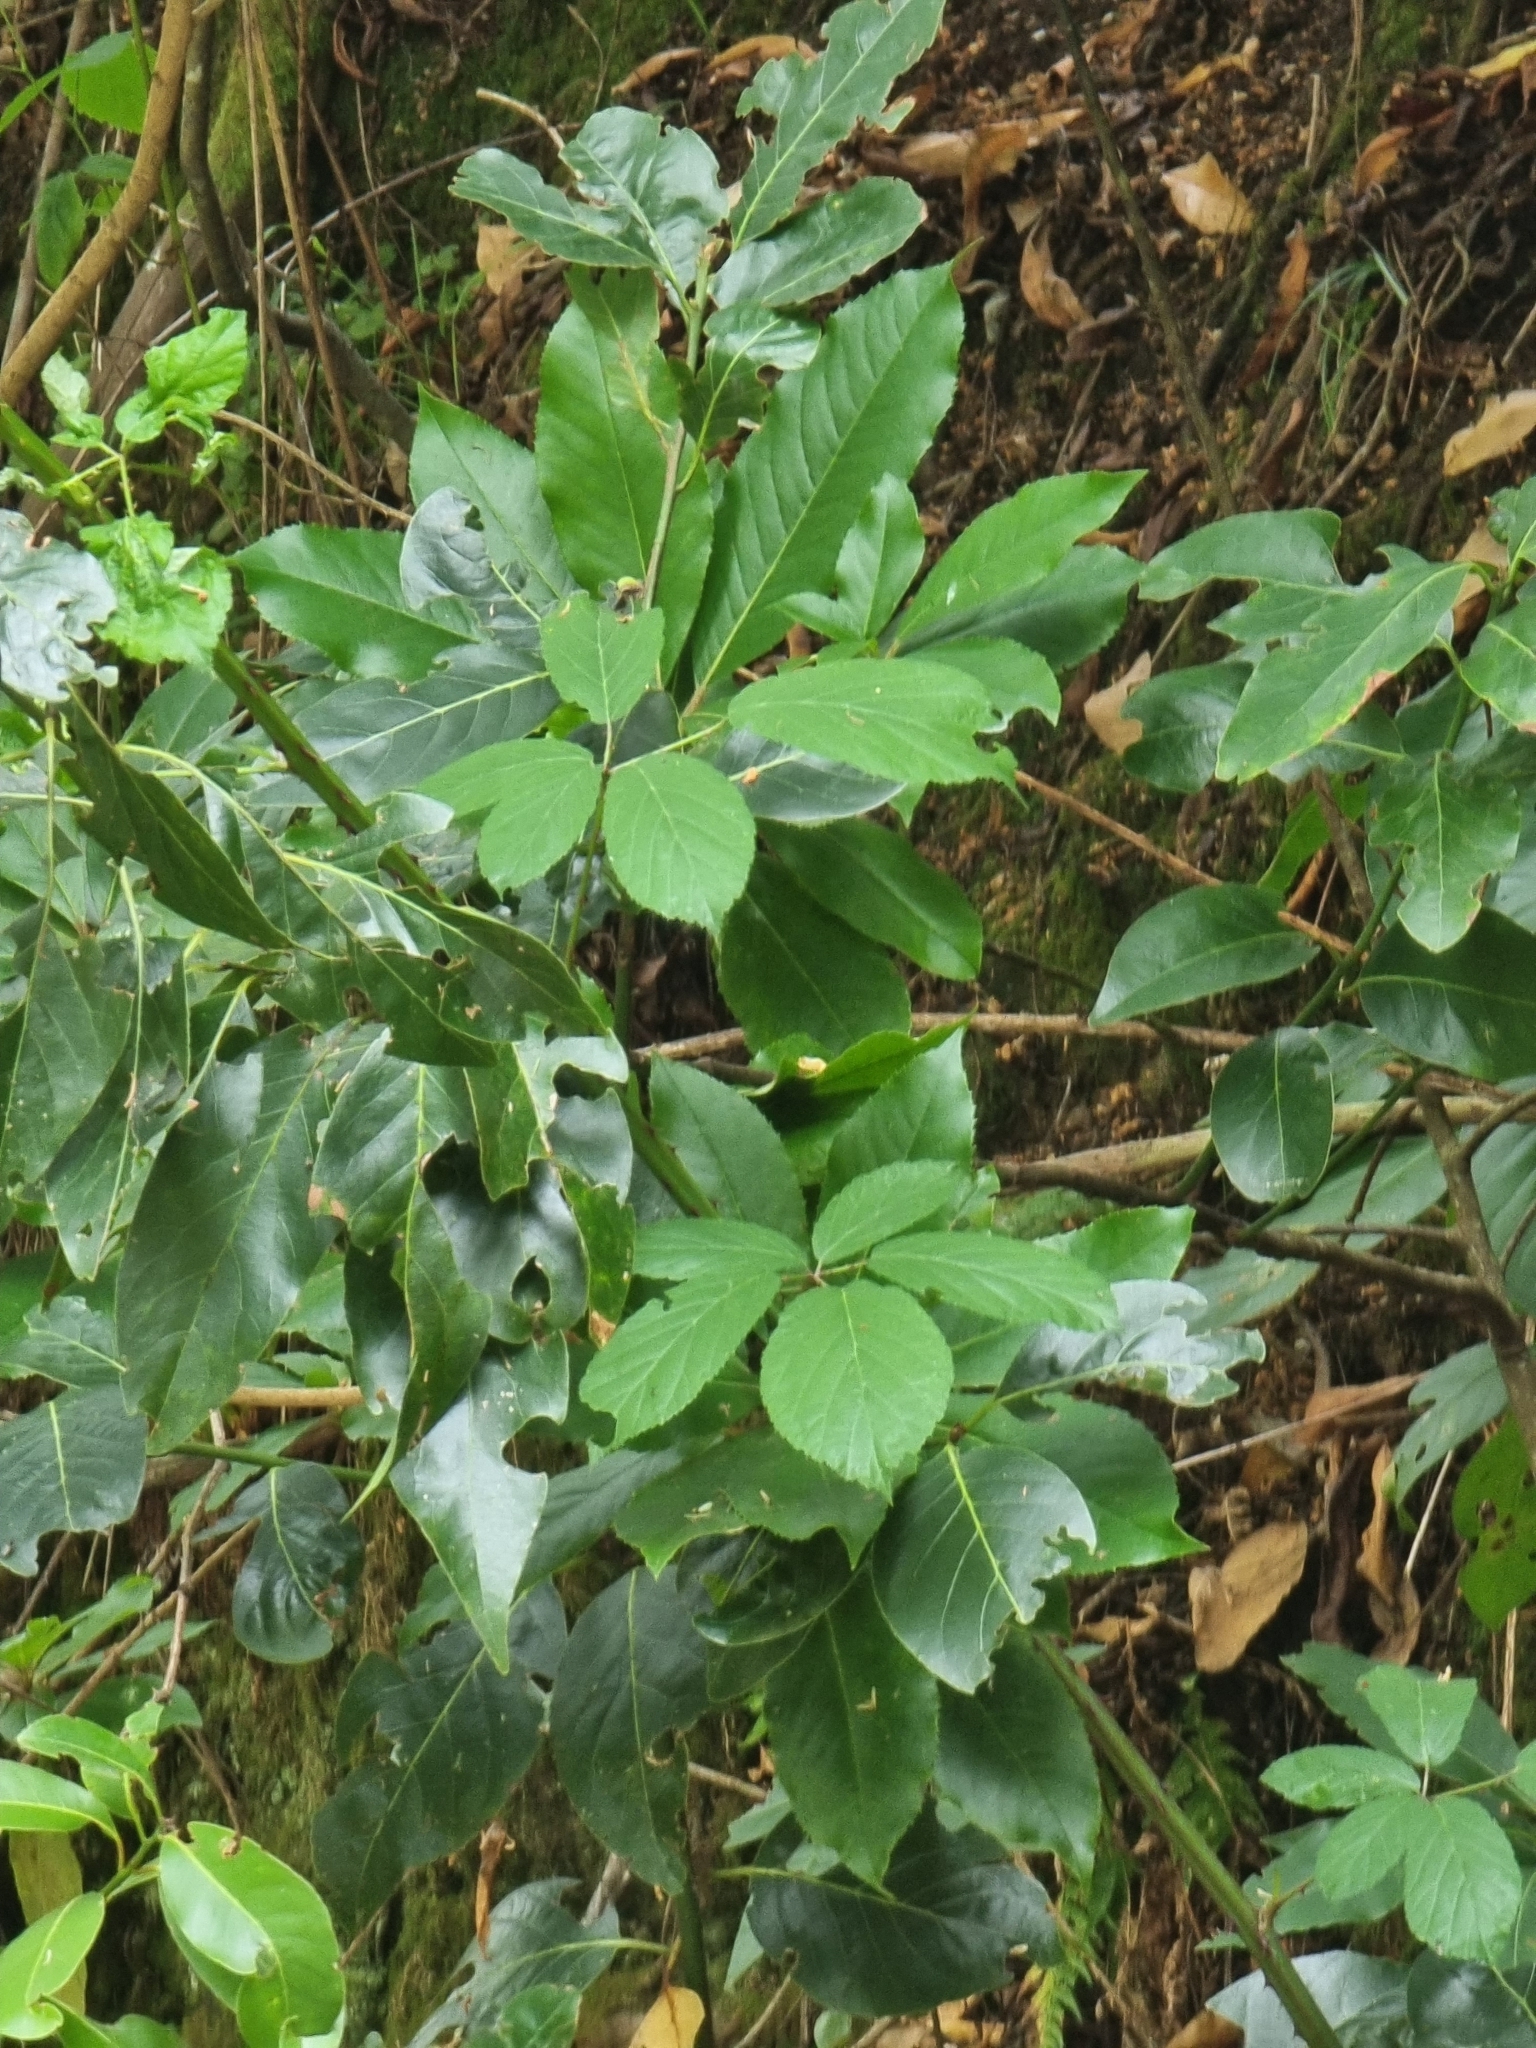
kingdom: Plantae
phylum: Tracheophyta
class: Magnoliopsida
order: Laurales
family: Lauraceae
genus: Laurus
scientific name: Laurus novocanariensis
